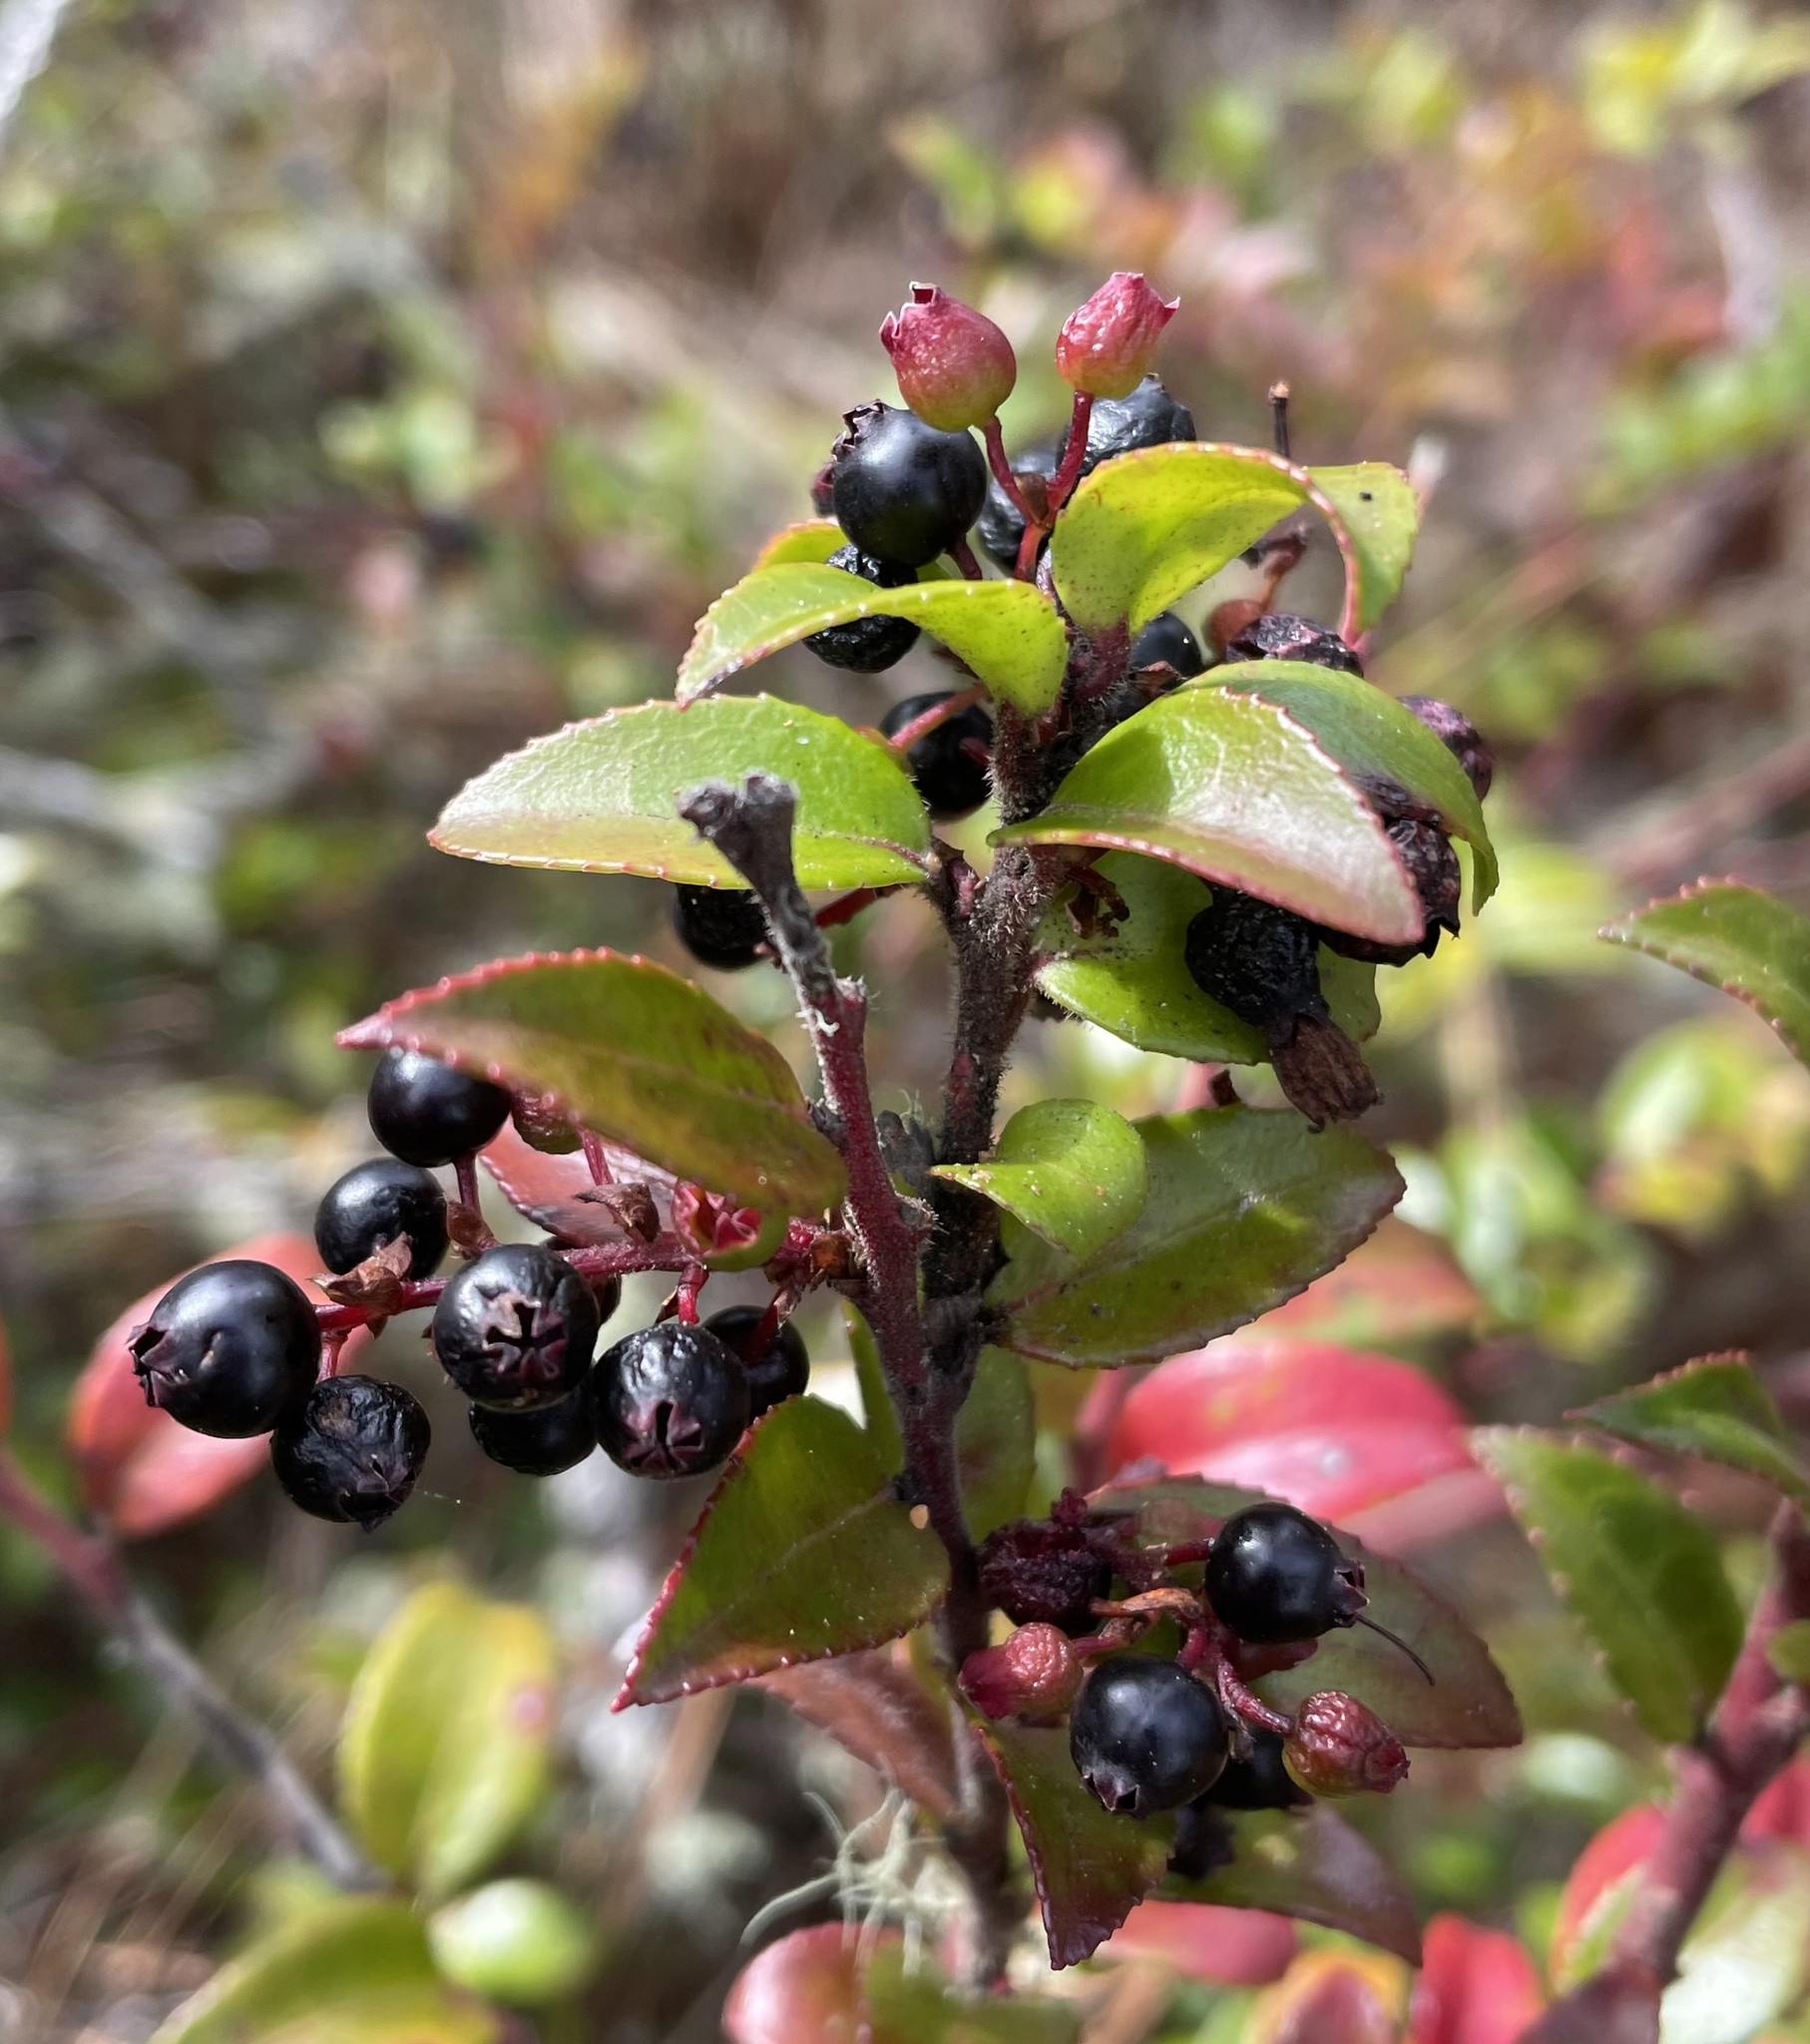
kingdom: Plantae
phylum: Tracheophyta
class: Magnoliopsida
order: Ericales
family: Ericaceae
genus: Vaccinium
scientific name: Vaccinium ovatum
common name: California-huckleberry
